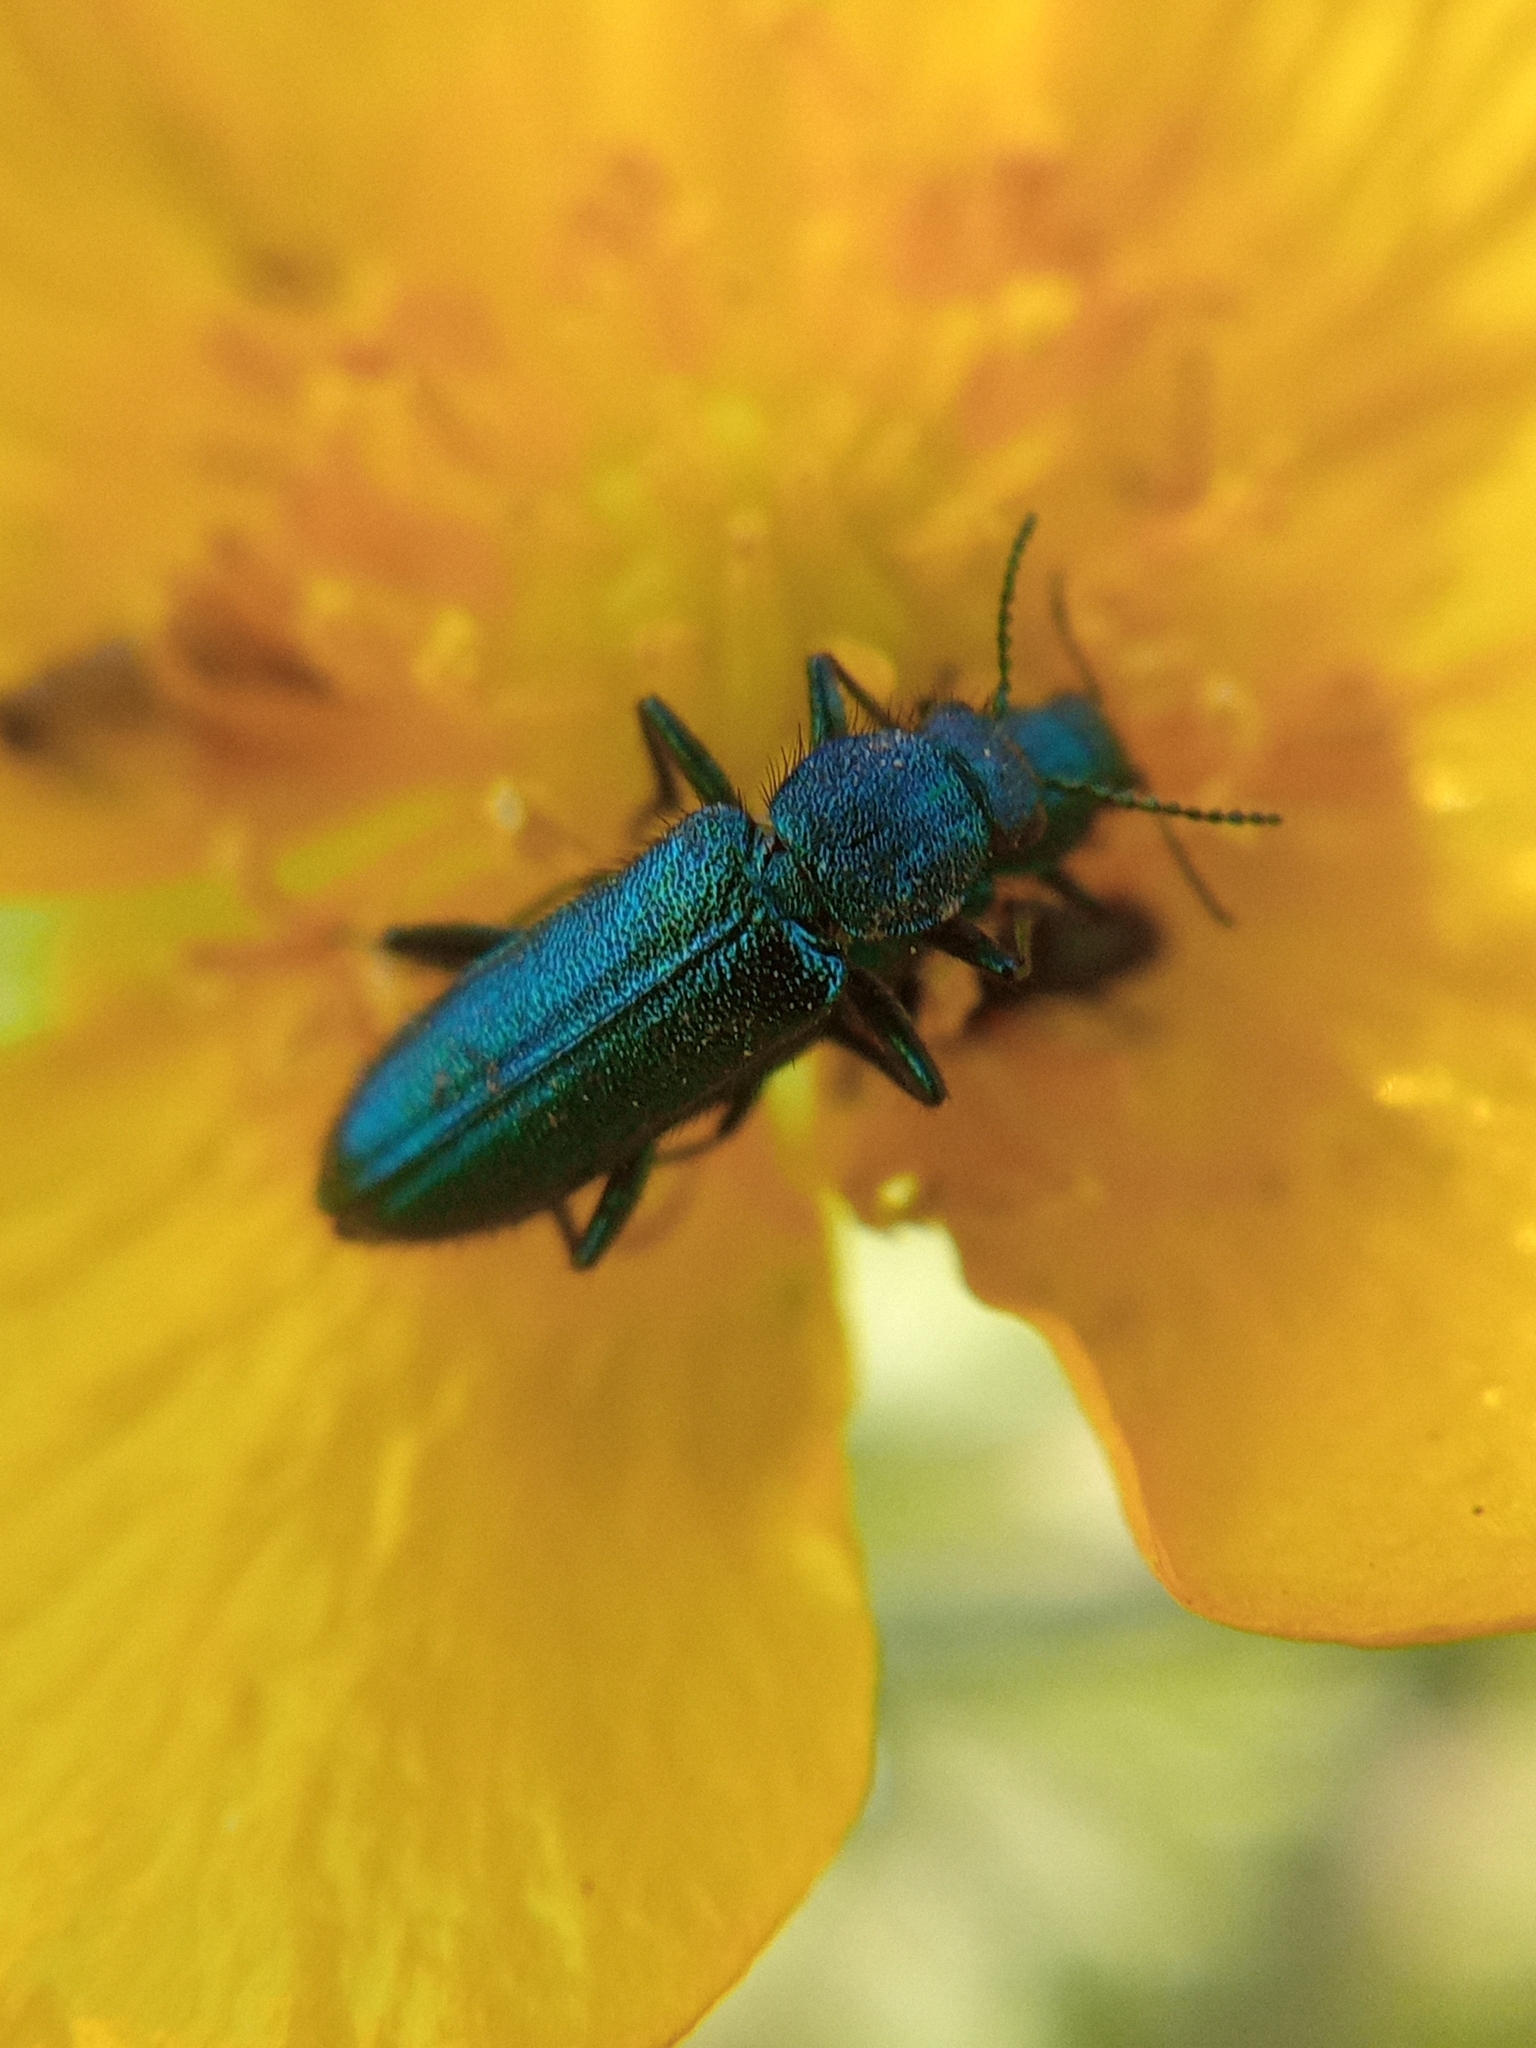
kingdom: Animalia
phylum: Arthropoda
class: Insecta
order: Coleoptera
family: Dasytidae
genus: Psilothrix
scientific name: Psilothrix viridicoerulea
